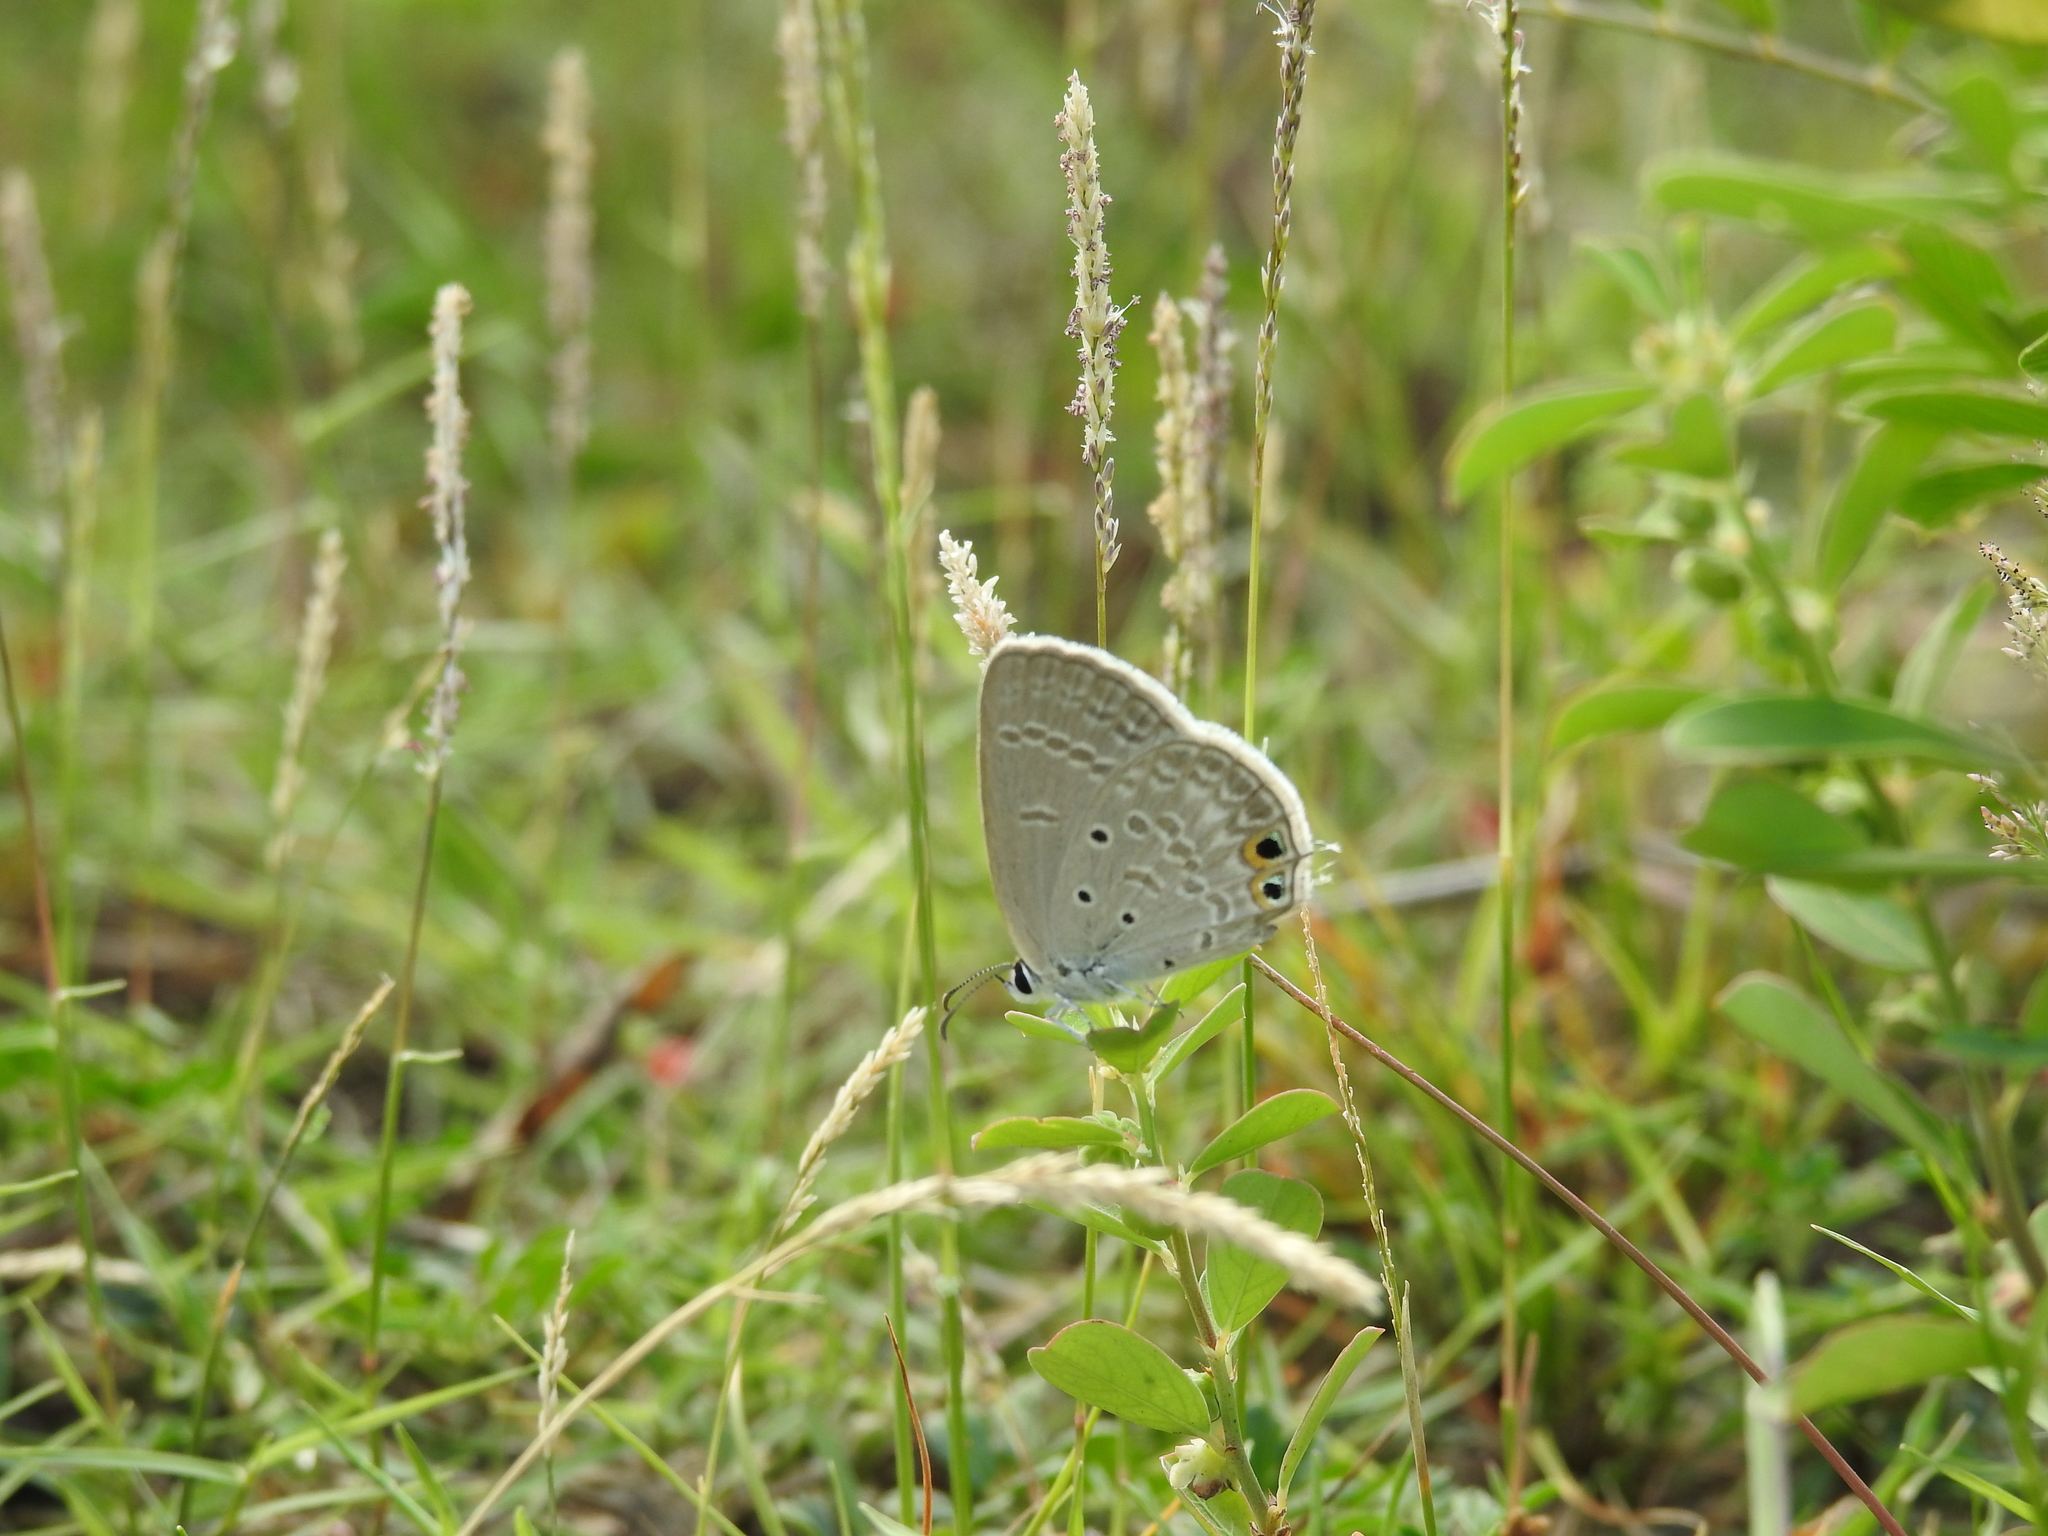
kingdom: Animalia
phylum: Arthropoda
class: Insecta
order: Lepidoptera
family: Lycaenidae
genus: Euchrysops
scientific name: Euchrysops cnejus
